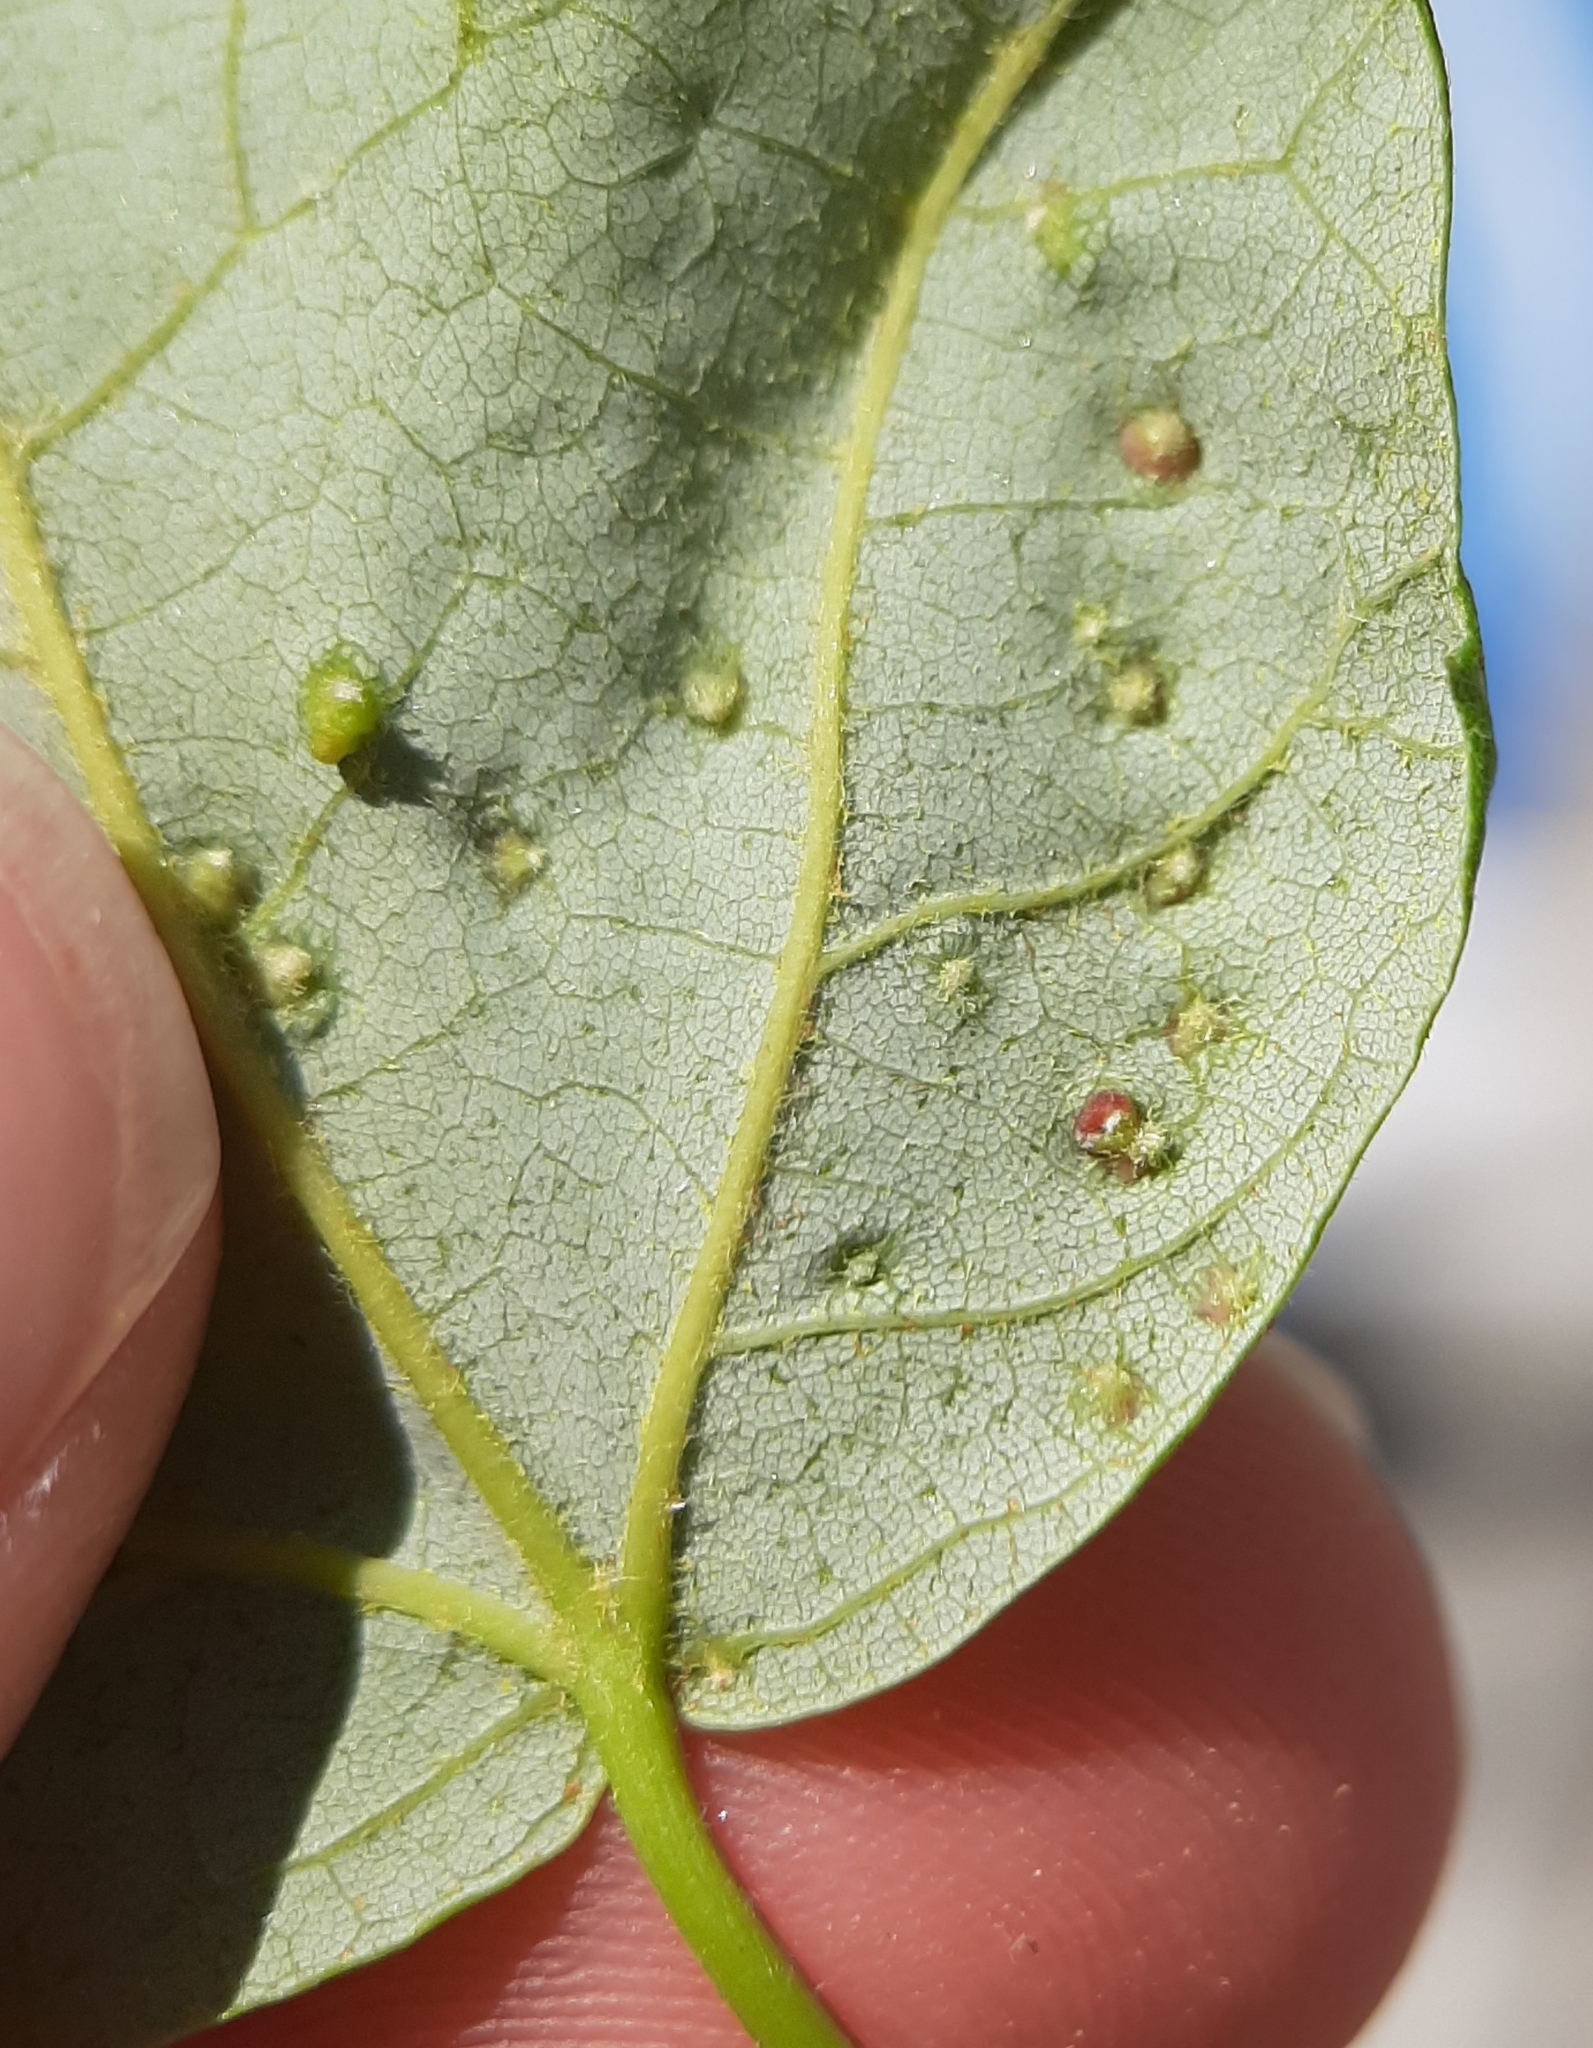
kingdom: Animalia
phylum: Arthropoda
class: Arachnida
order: Trombidiformes
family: Eriophyidae
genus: Vasates
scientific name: Vasates quadripedes
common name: Maple bladder gall mite
